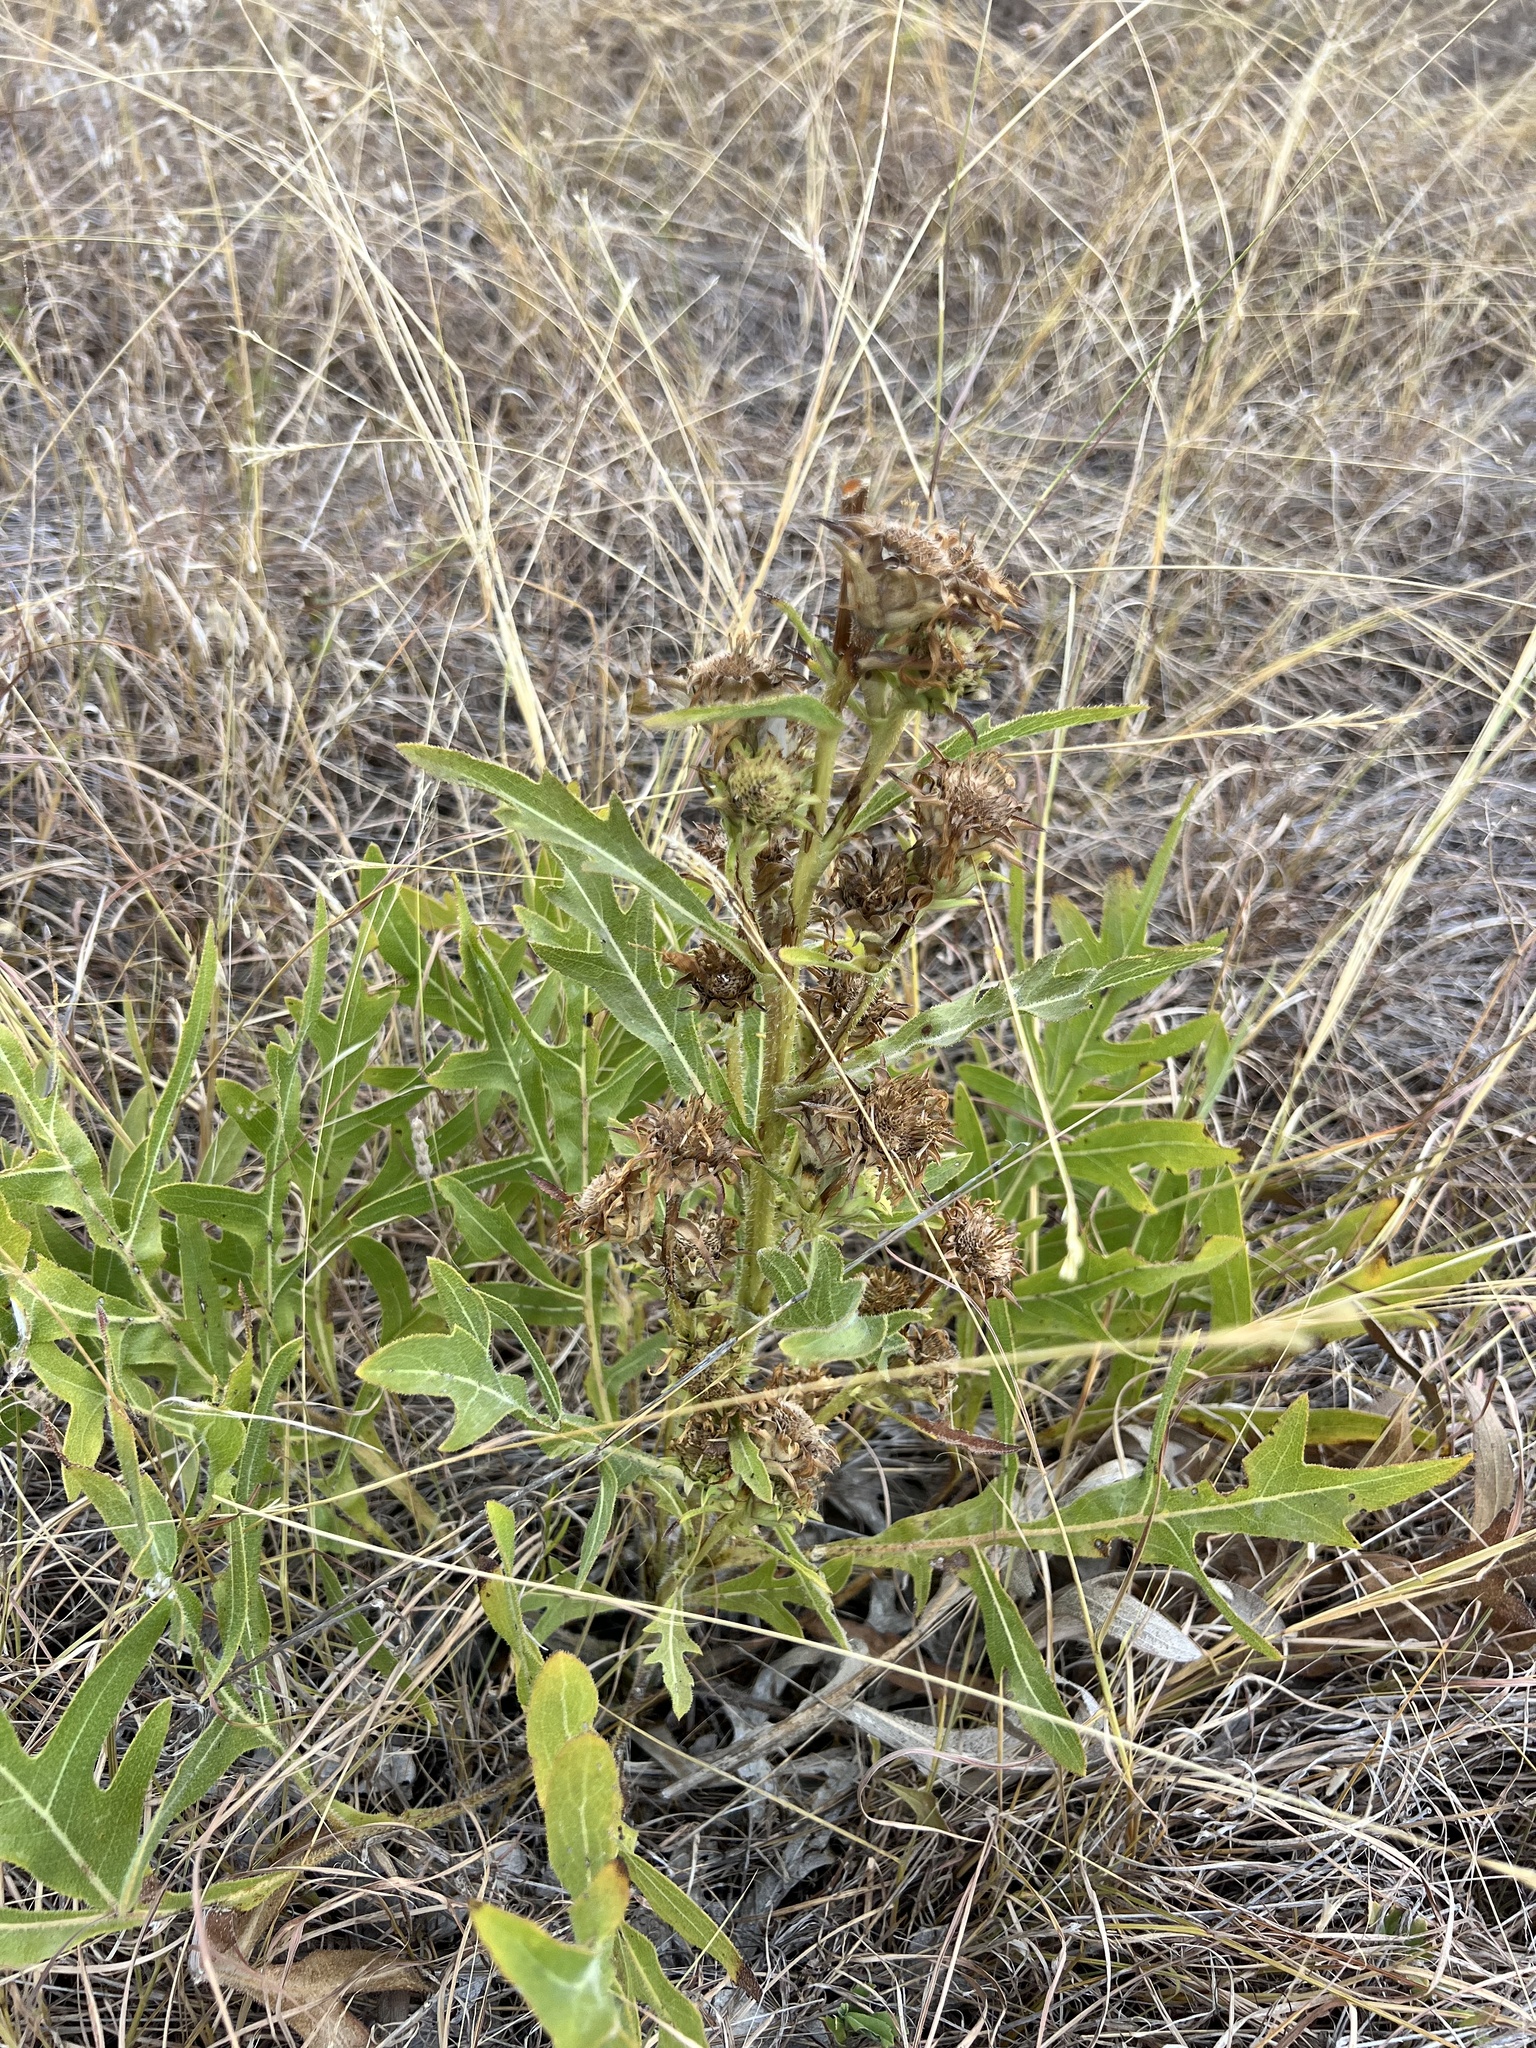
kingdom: Plantae
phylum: Tracheophyta
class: Magnoliopsida
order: Asterales
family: Asteraceae
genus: Silphium
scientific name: Silphium albiflorum
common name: White rosinweed
